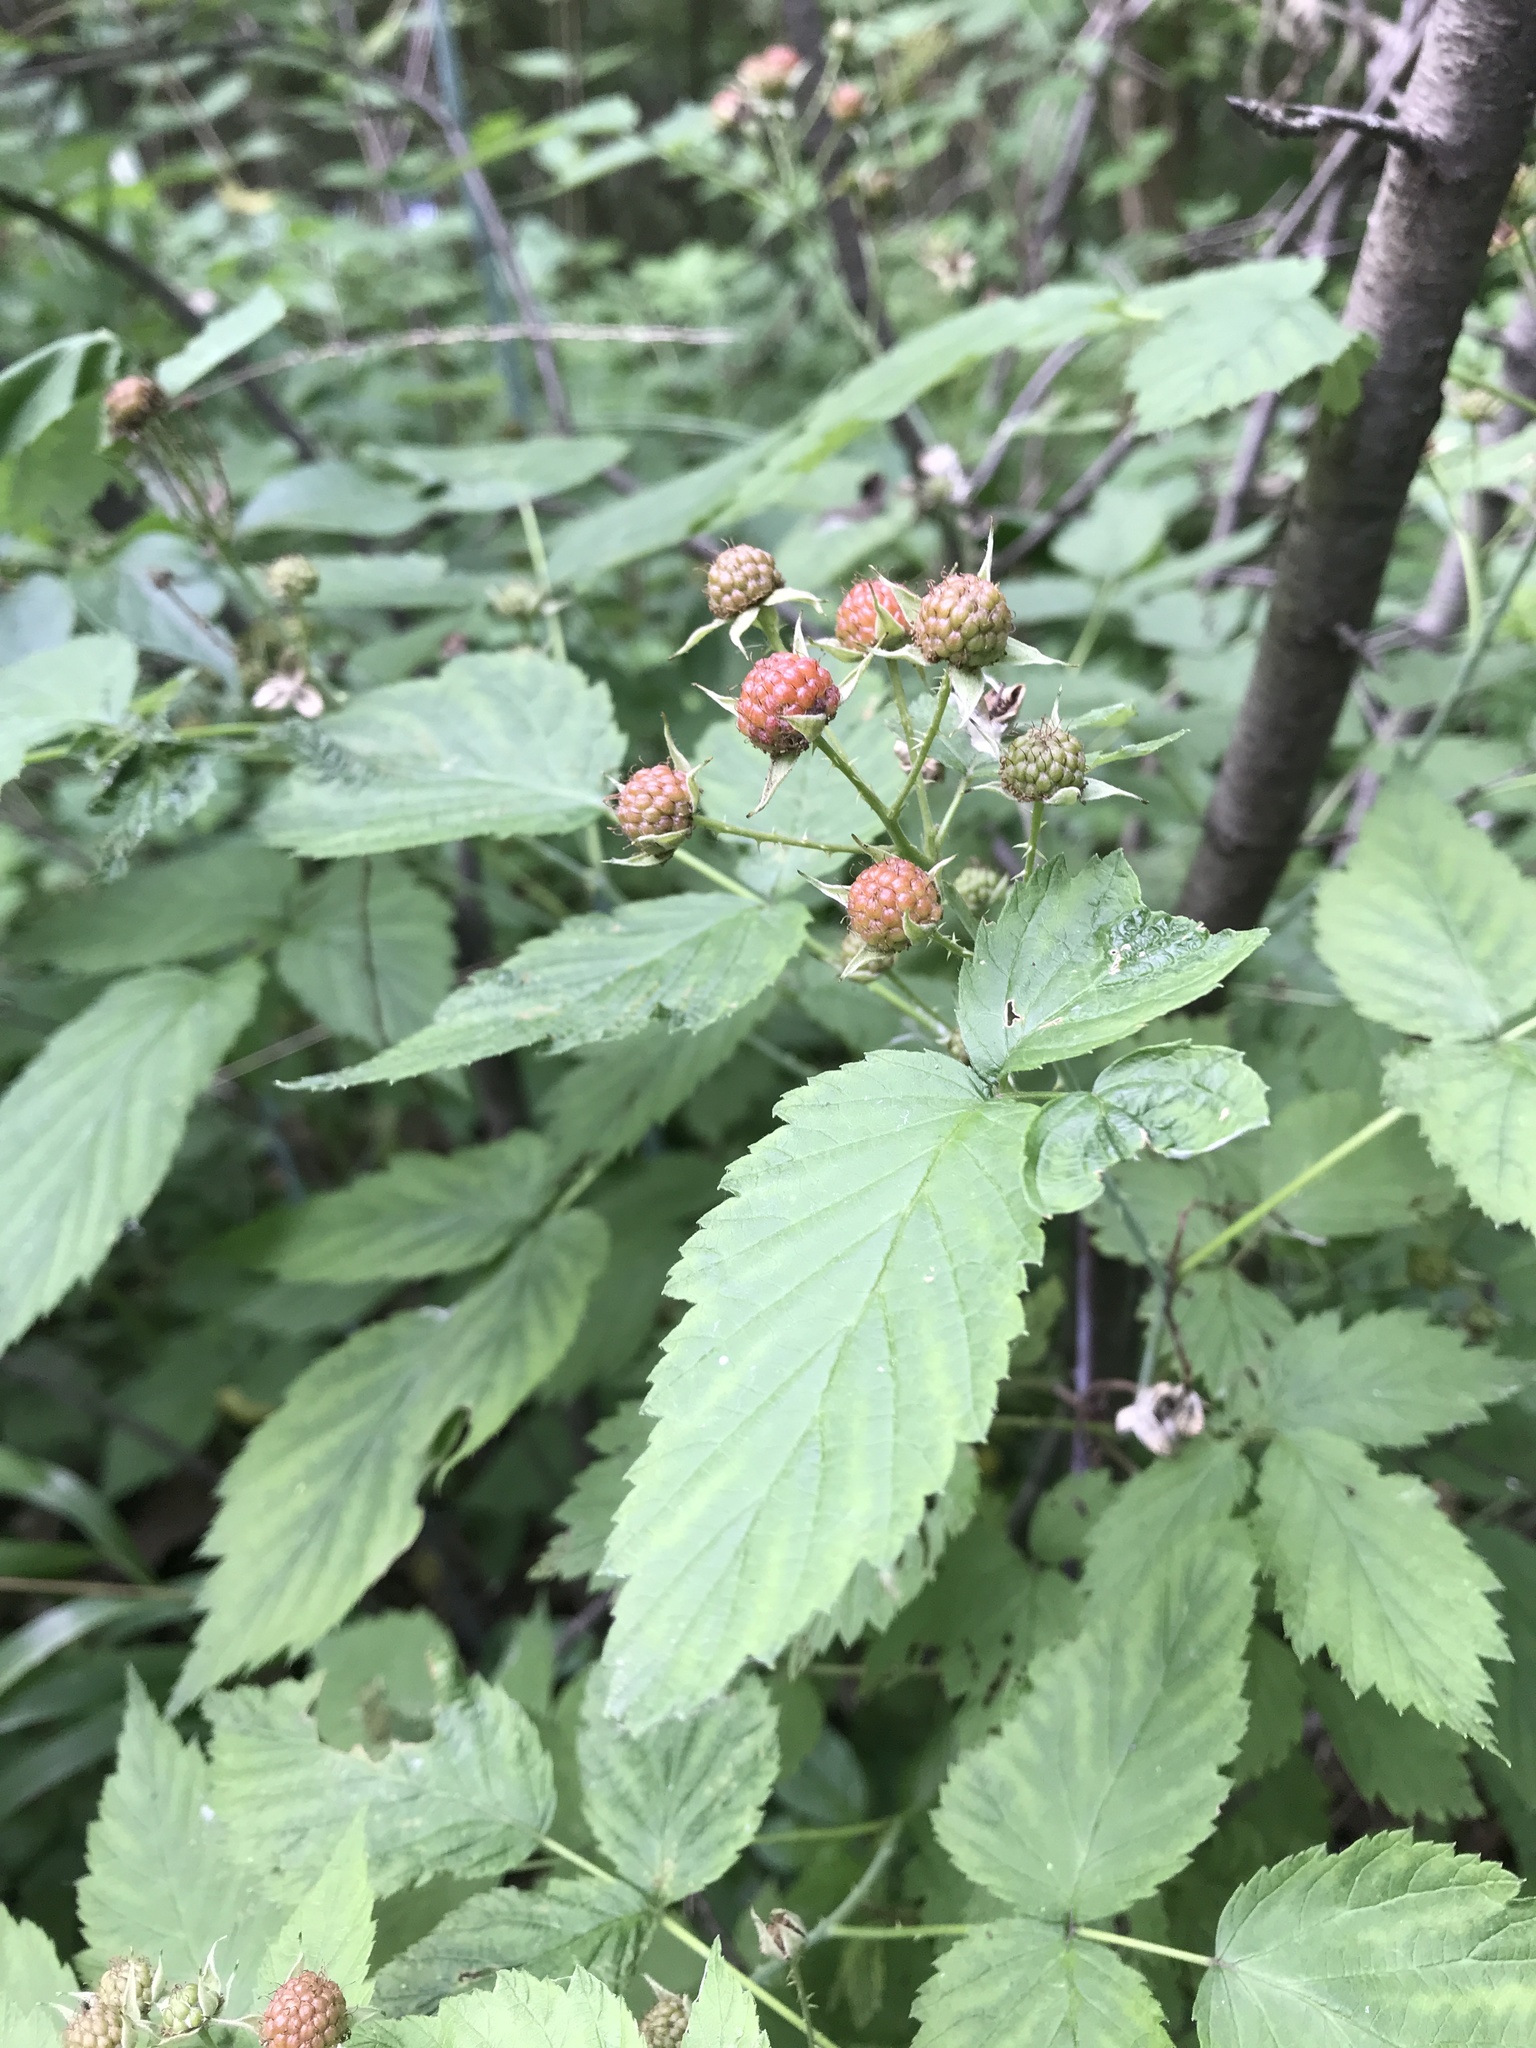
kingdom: Plantae
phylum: Tracheophyta
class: Magnoliopsida
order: Rosales
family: Rosaceae
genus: Rubus
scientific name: Rubus occidentalis
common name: Black raspberry
